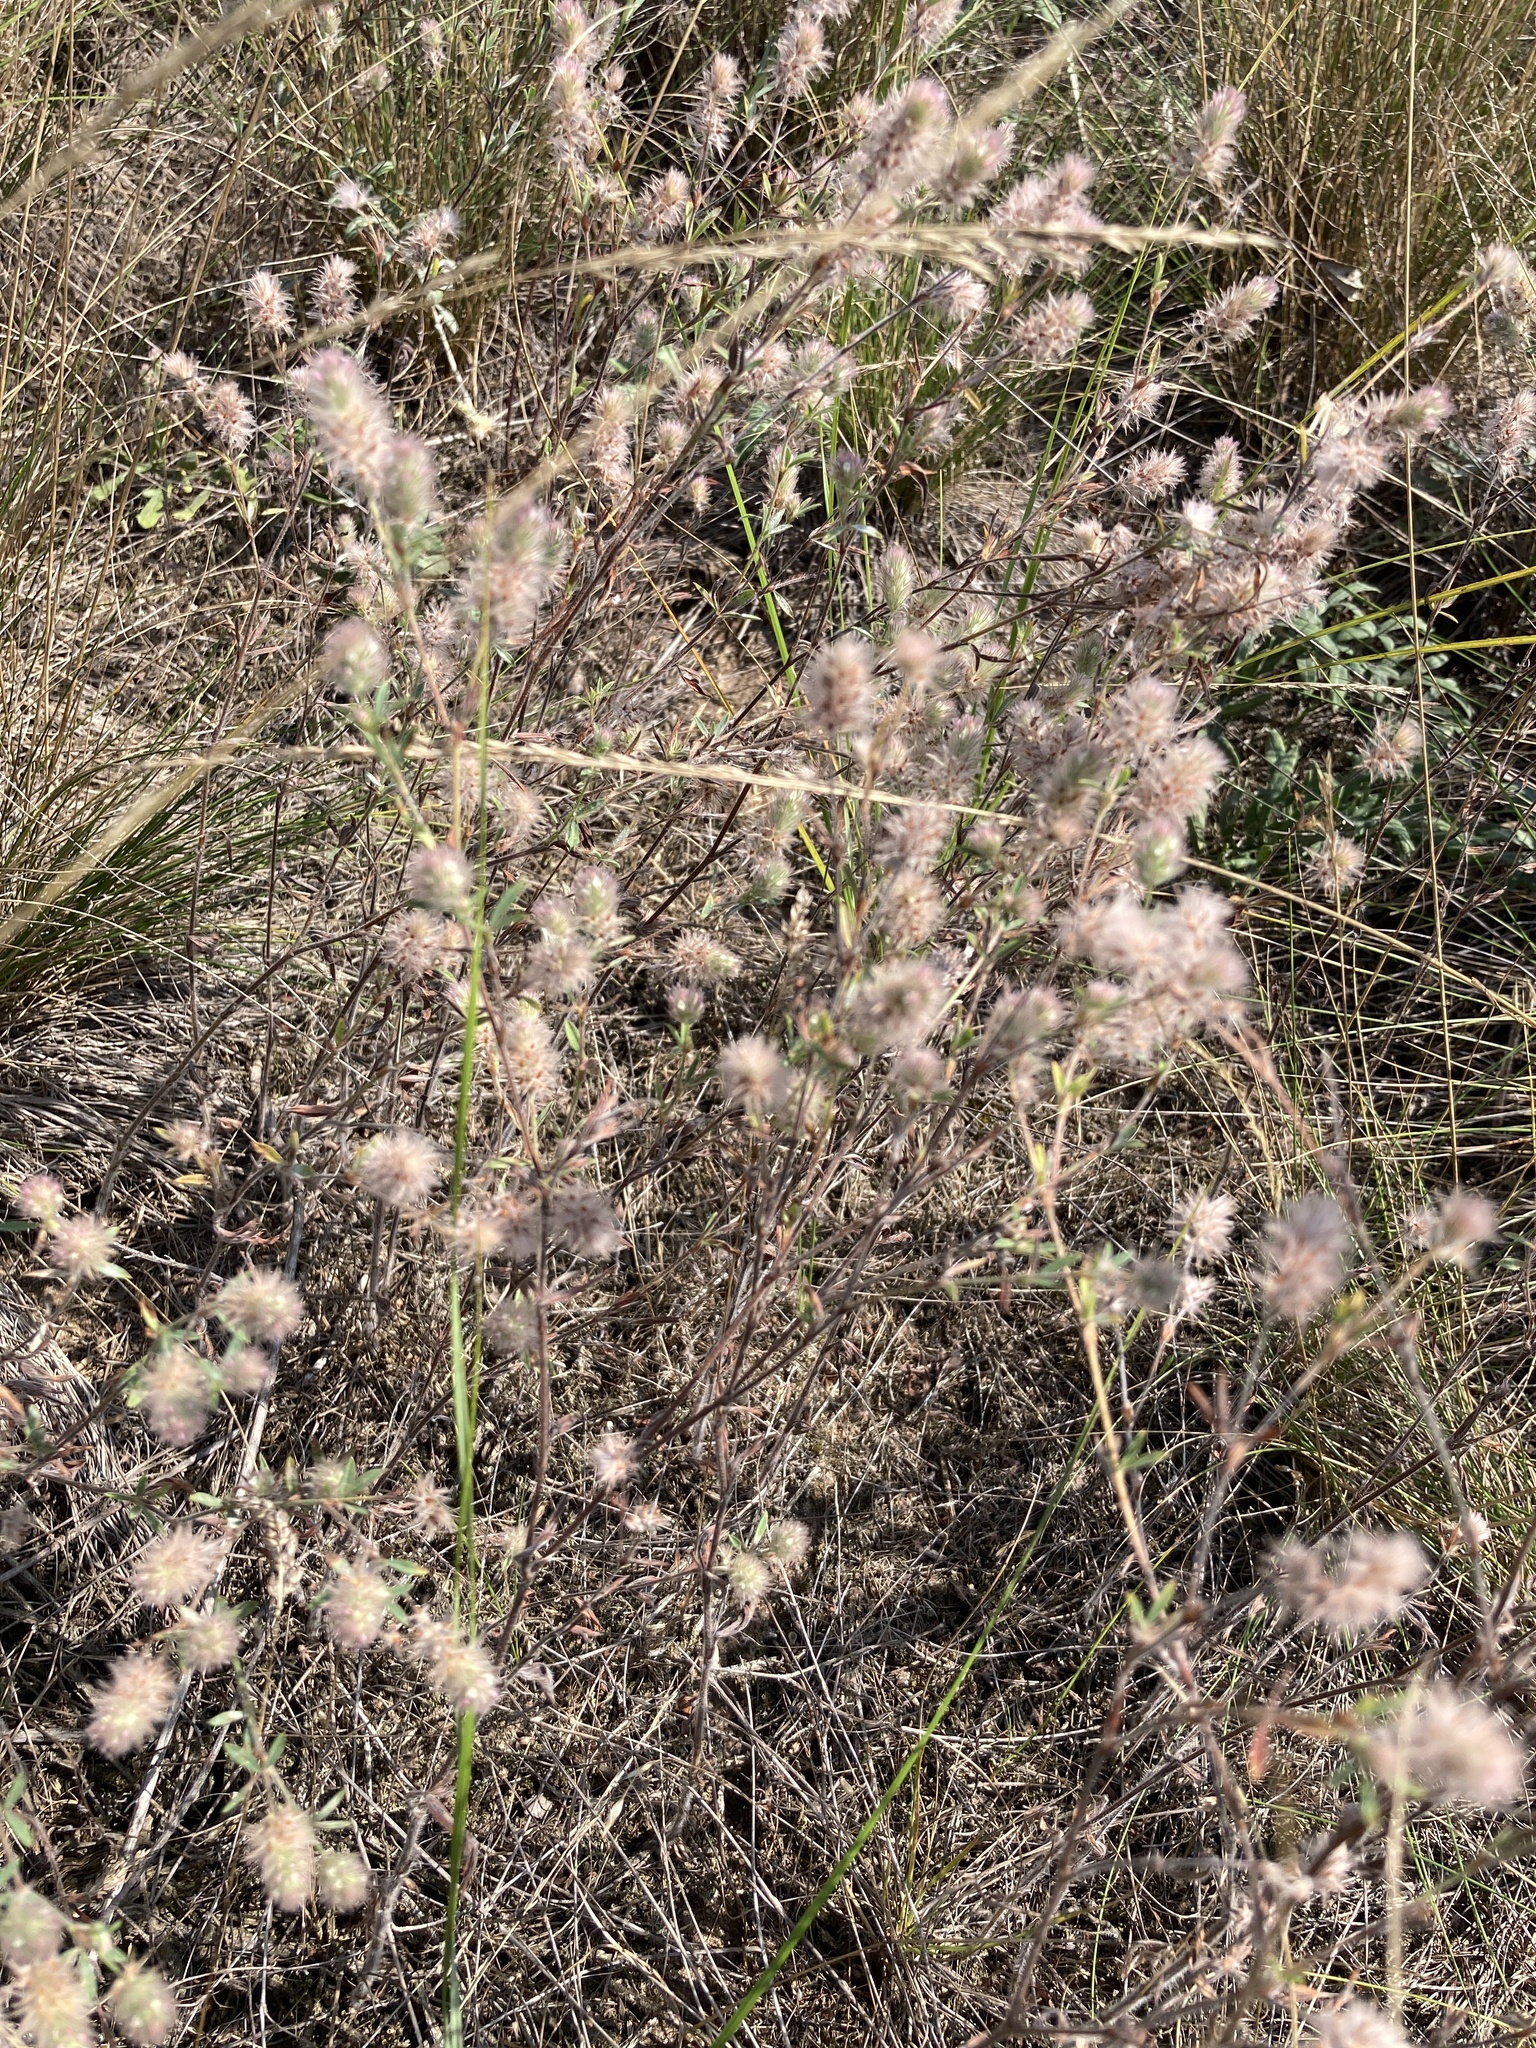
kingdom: Plantae
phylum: Tracheophyta
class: Magnoliopsida
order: Fabales
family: Fabaceae
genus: Trifolium
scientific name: Trifolium arvense
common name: Hare's-foot clover
